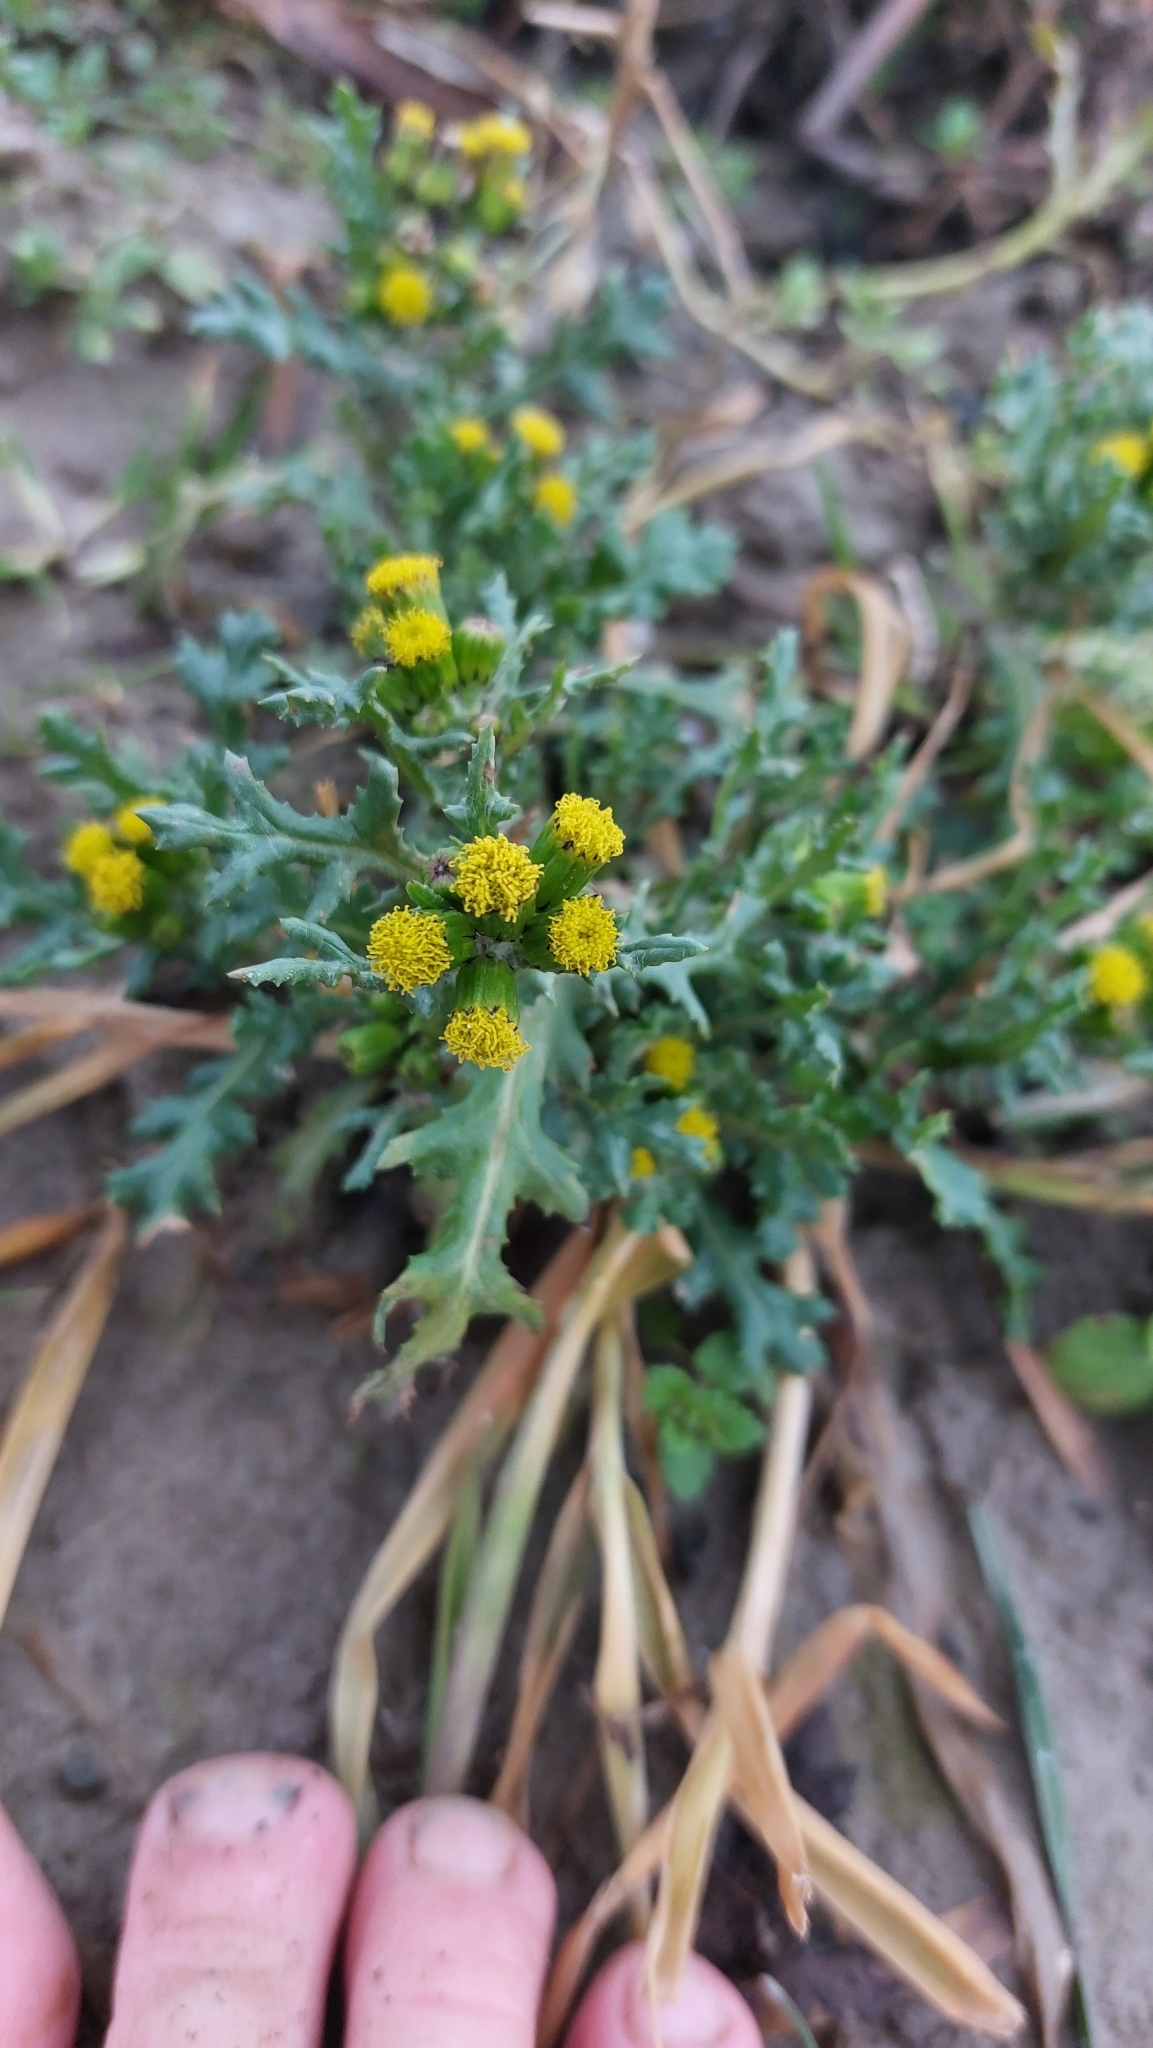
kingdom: Plantae
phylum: Tracheophyta
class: Magnoliopsida
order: Asterales
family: Asteraceae
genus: Senecio
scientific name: Senecio vulgaris
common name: Old-man-in-the-spring
